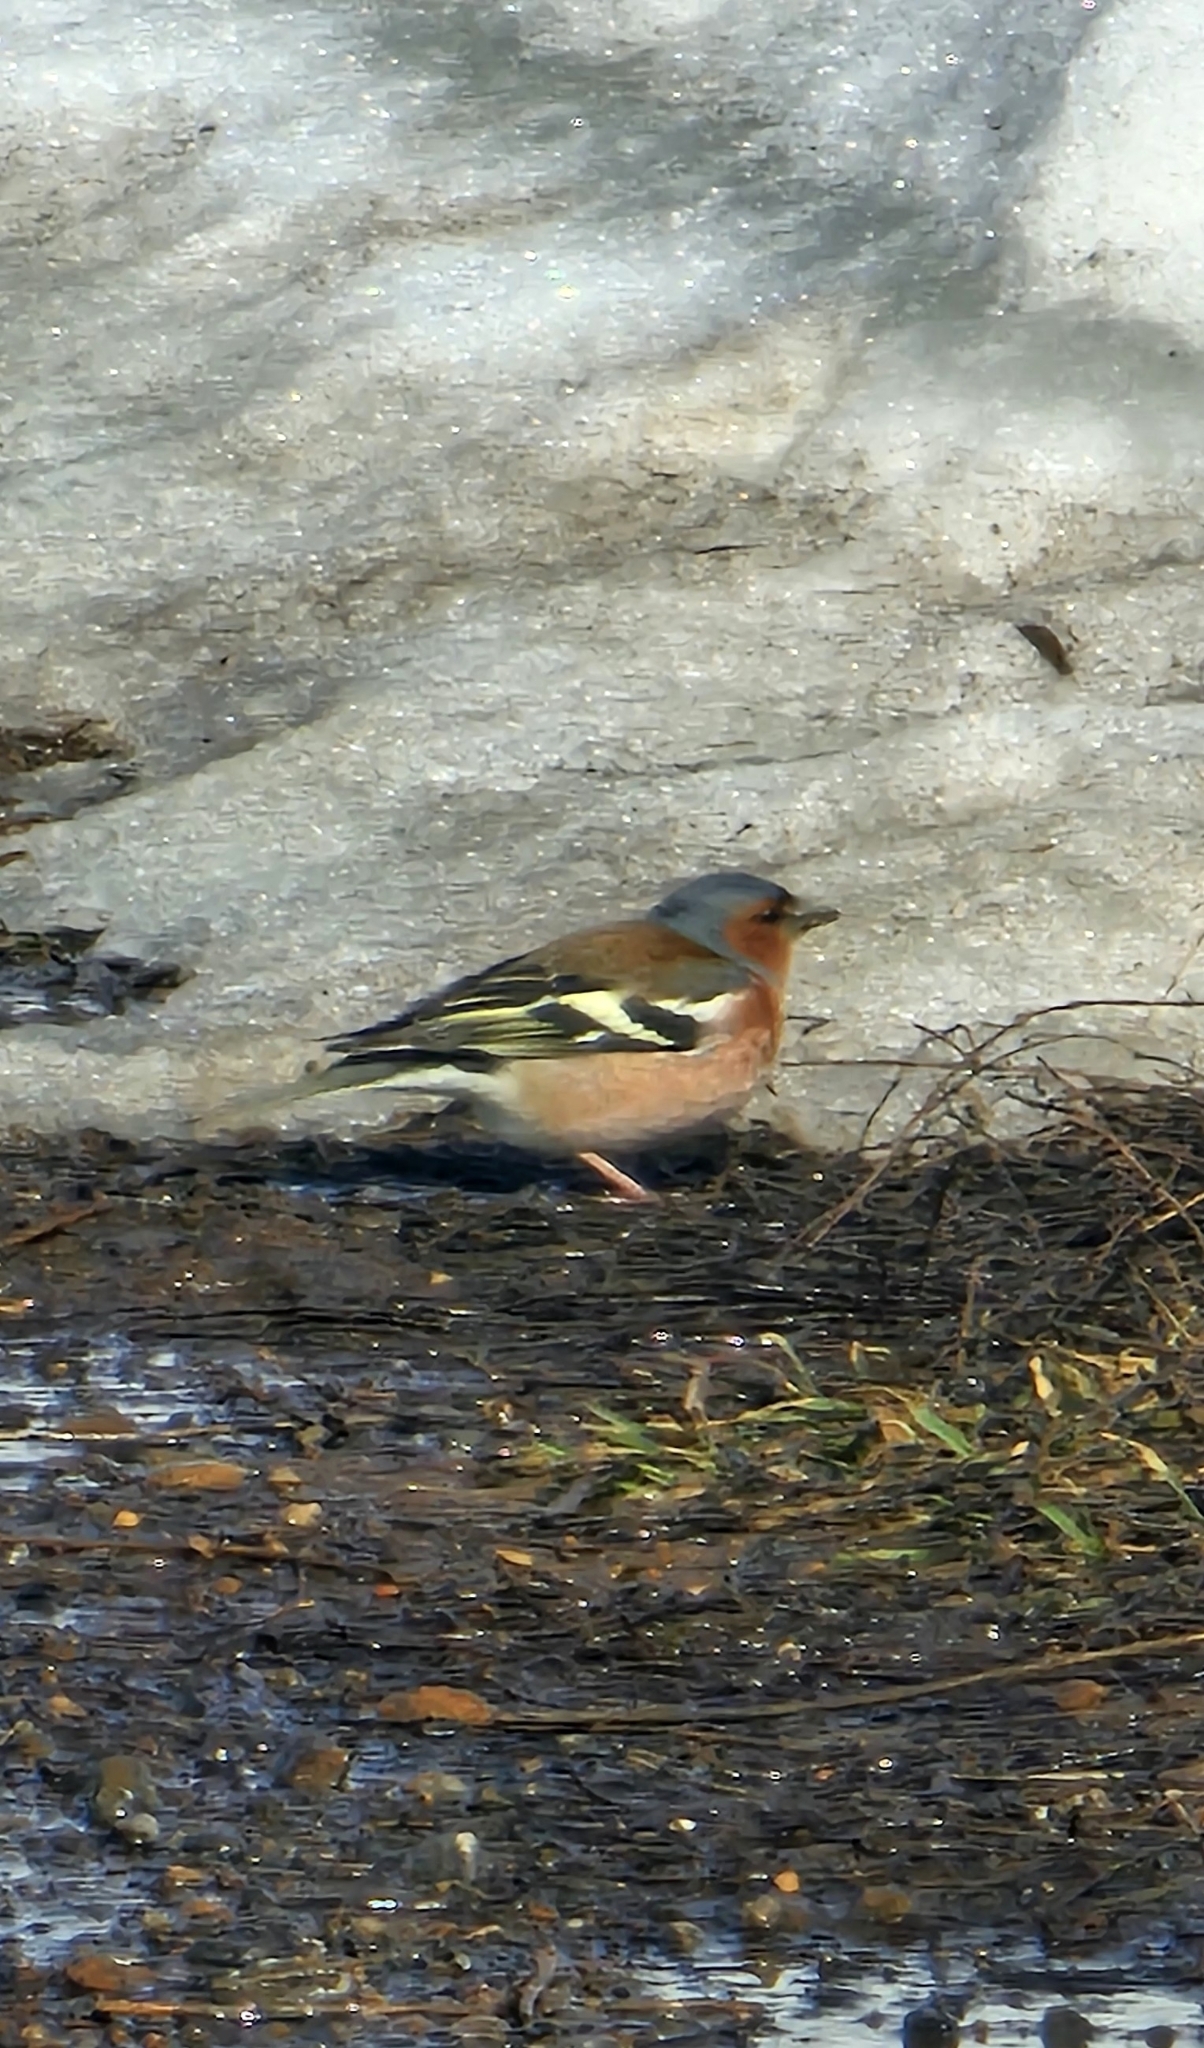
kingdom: Animalia
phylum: Chordata
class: Aves
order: Passeriformes
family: Fringillidae
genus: Fringilla
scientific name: Fringilla coelebs
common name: Common chaffinch
